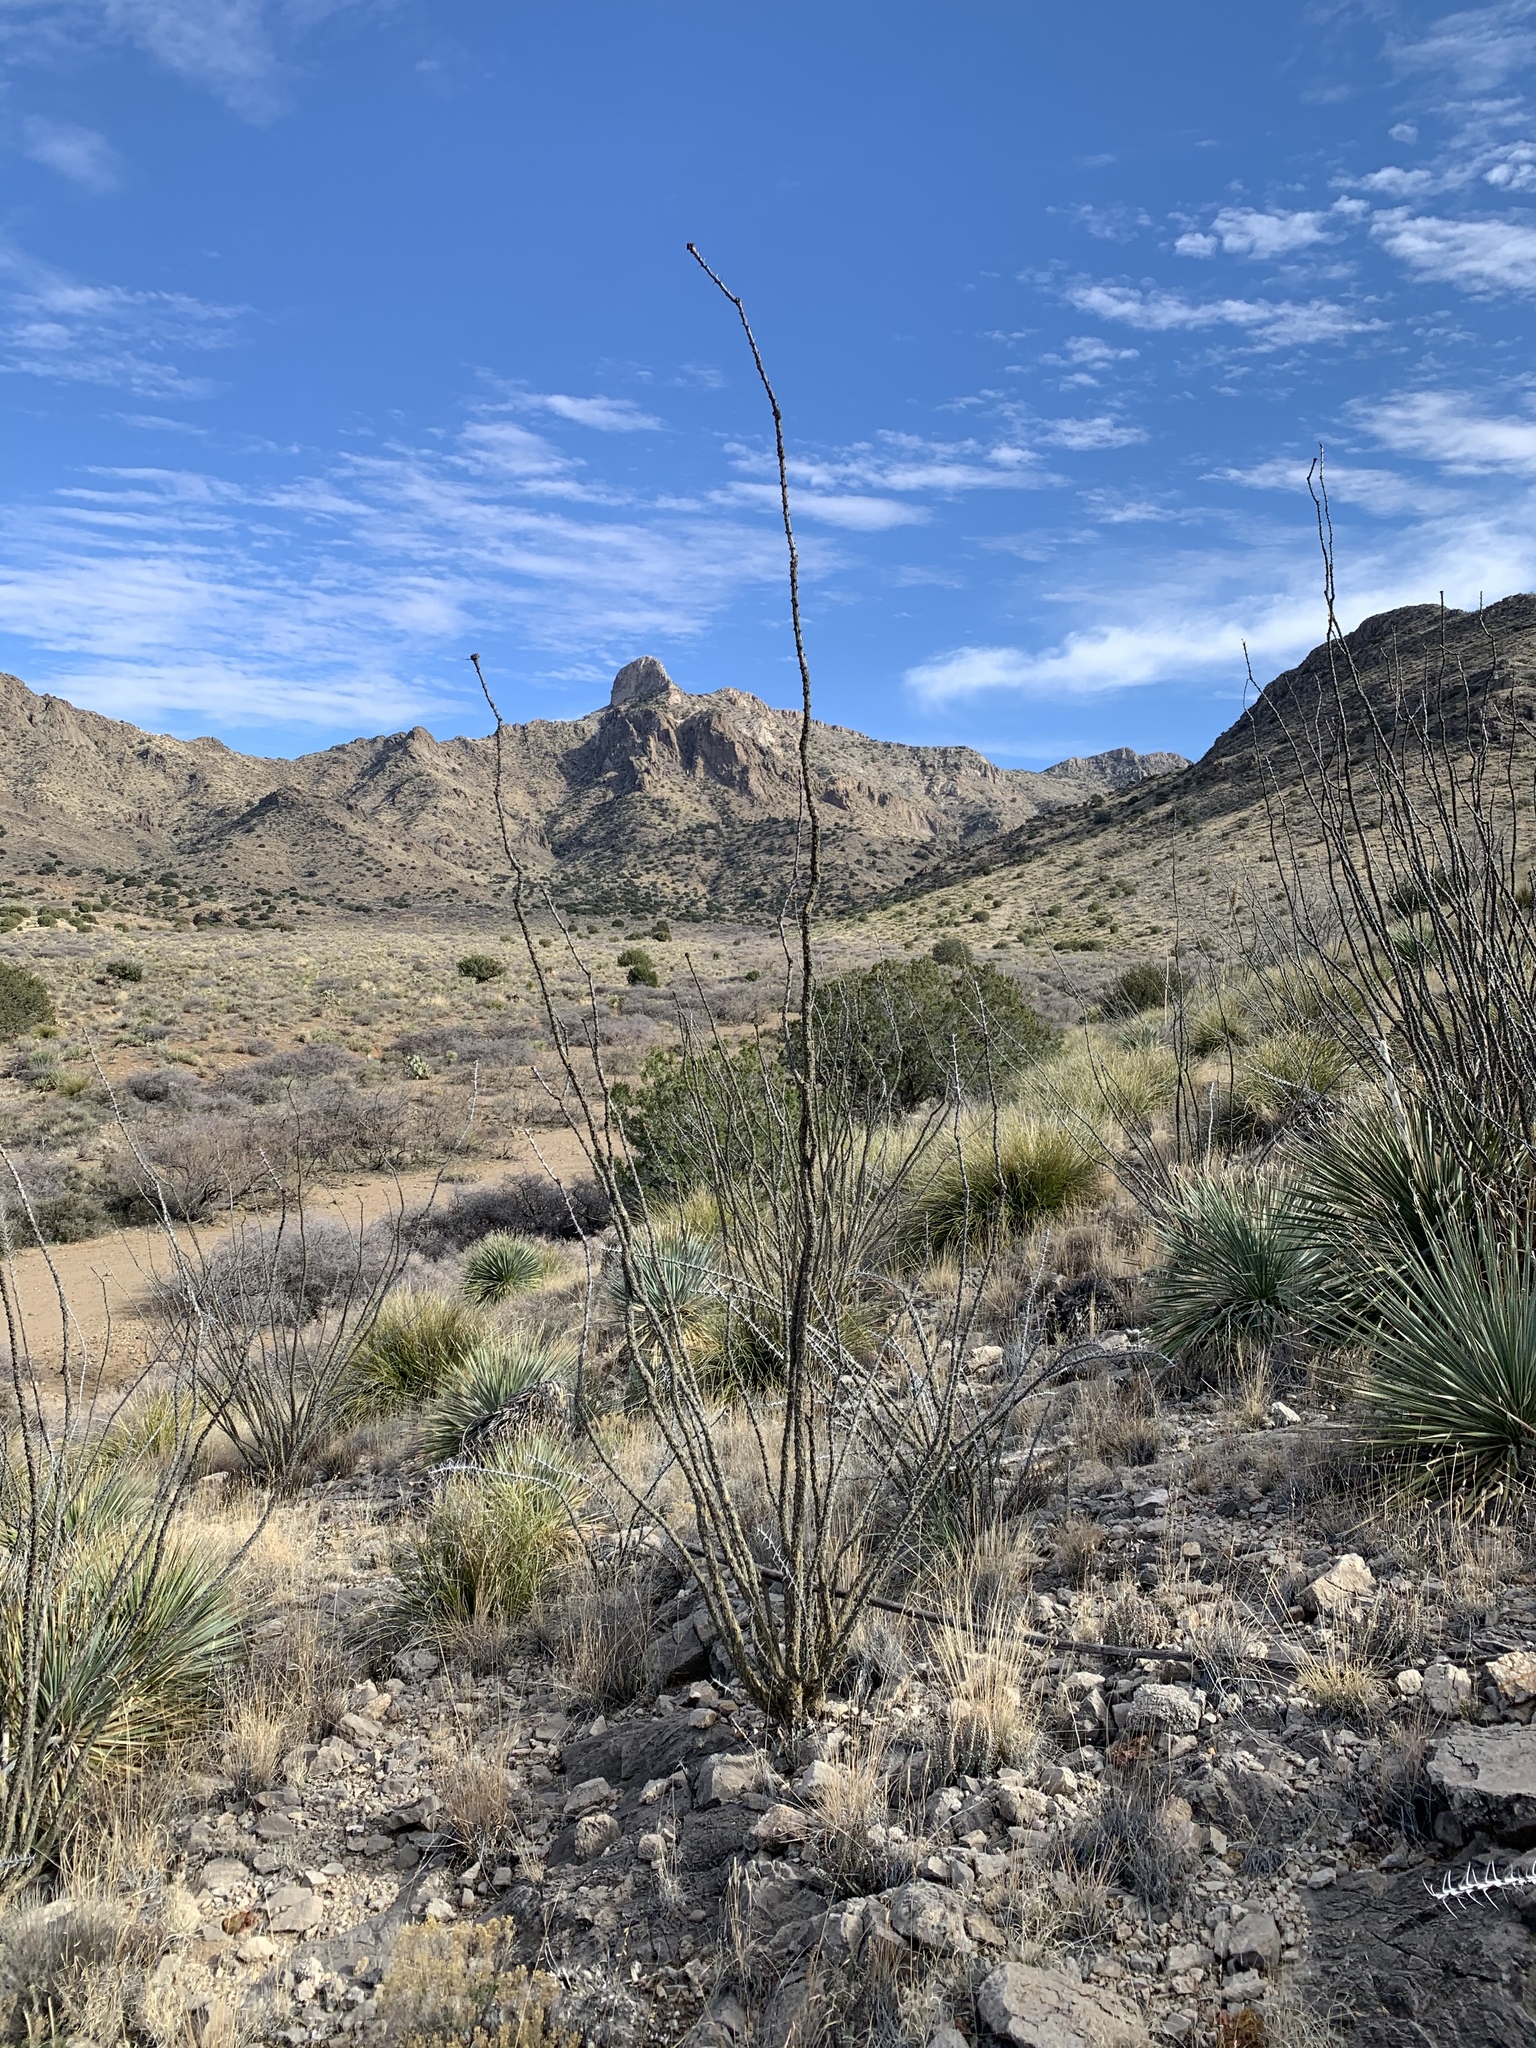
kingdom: Plantae
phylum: Tracheophyta
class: Magnoliopsida
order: Ericales
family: Fouquieriaceae
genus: Fouquieria
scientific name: Fouquieria splendens
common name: Vine-cactus
